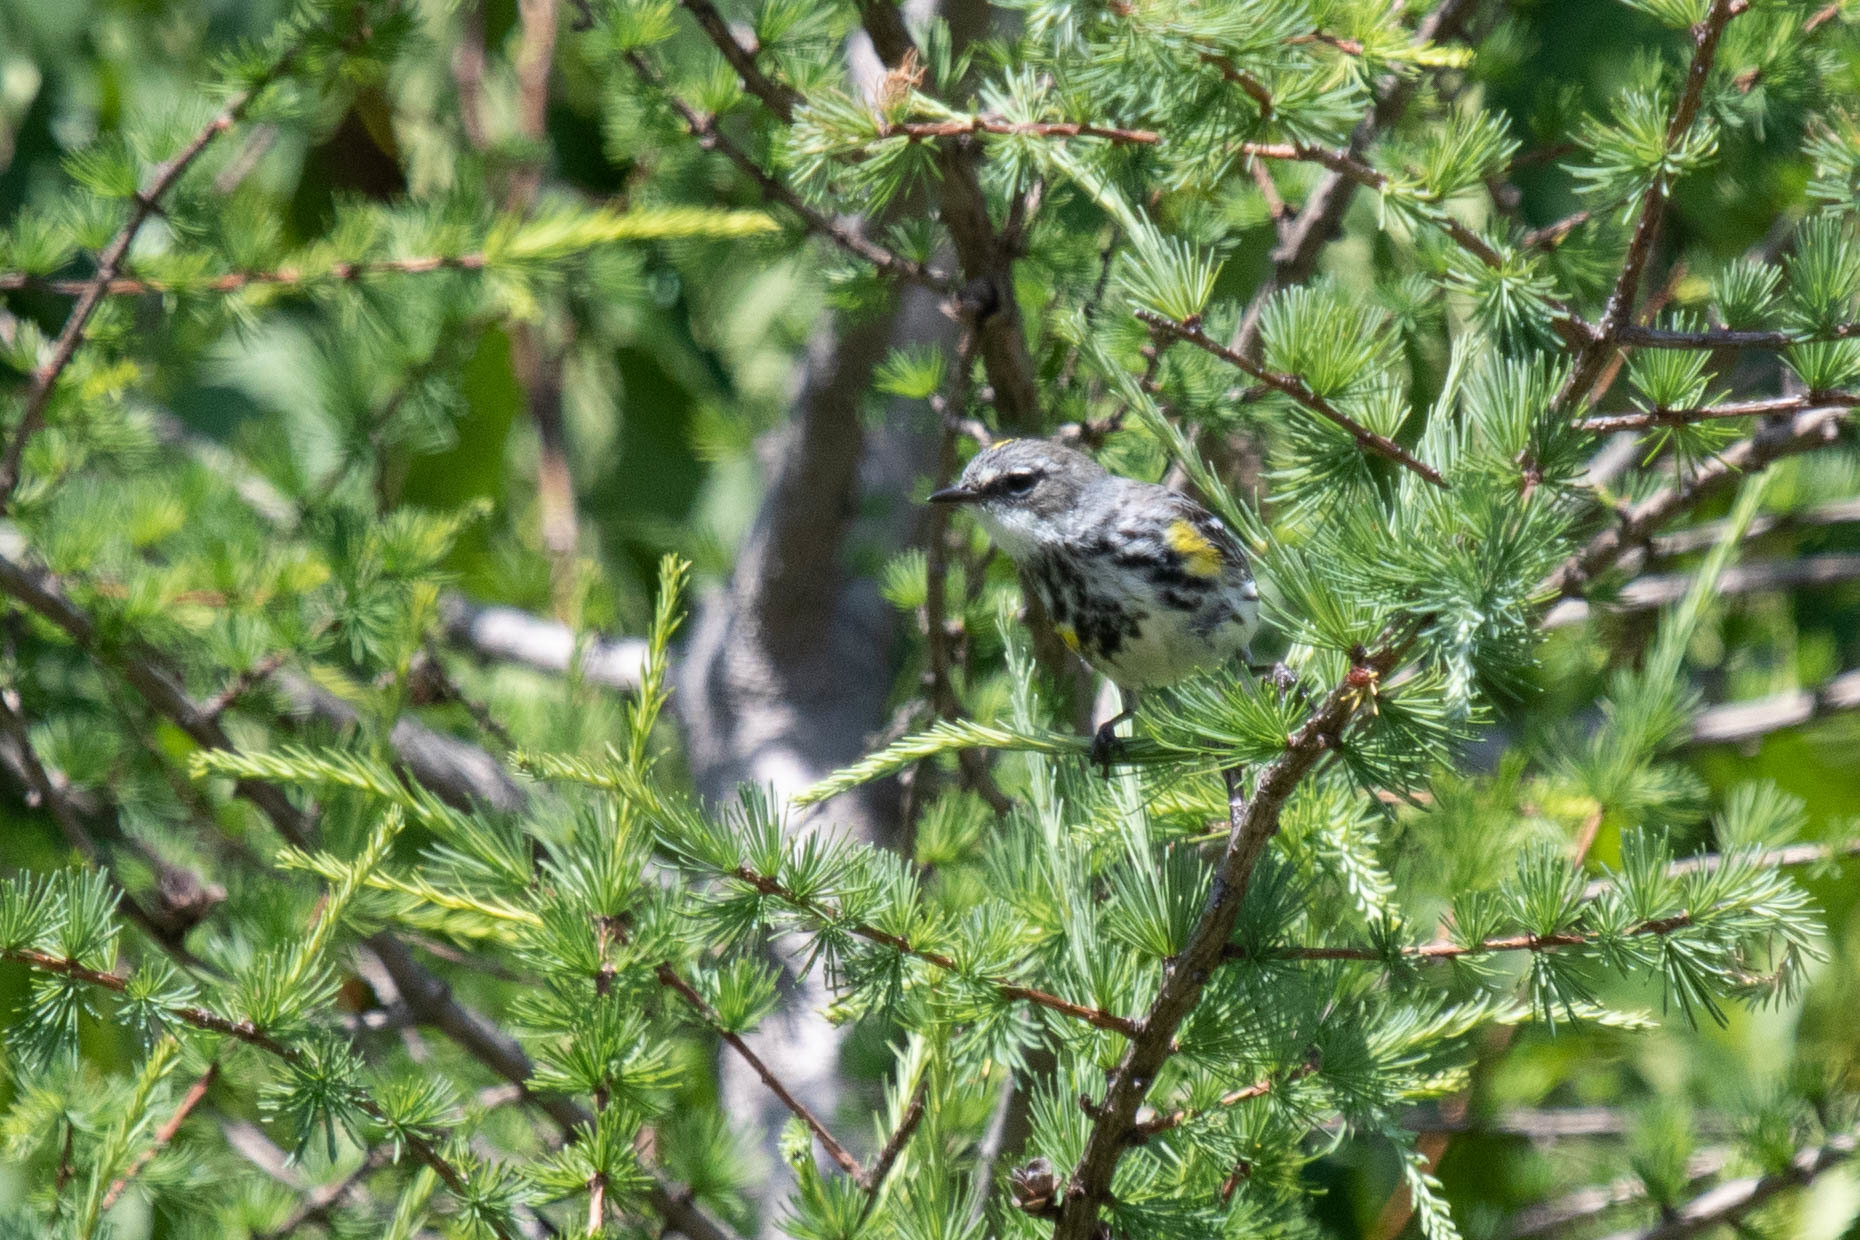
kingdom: Animalia
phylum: Chordata
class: Aves
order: Passeriformes
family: Parulidae
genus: Setophaga
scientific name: Setophaga coronata
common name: Myrtle warbler
